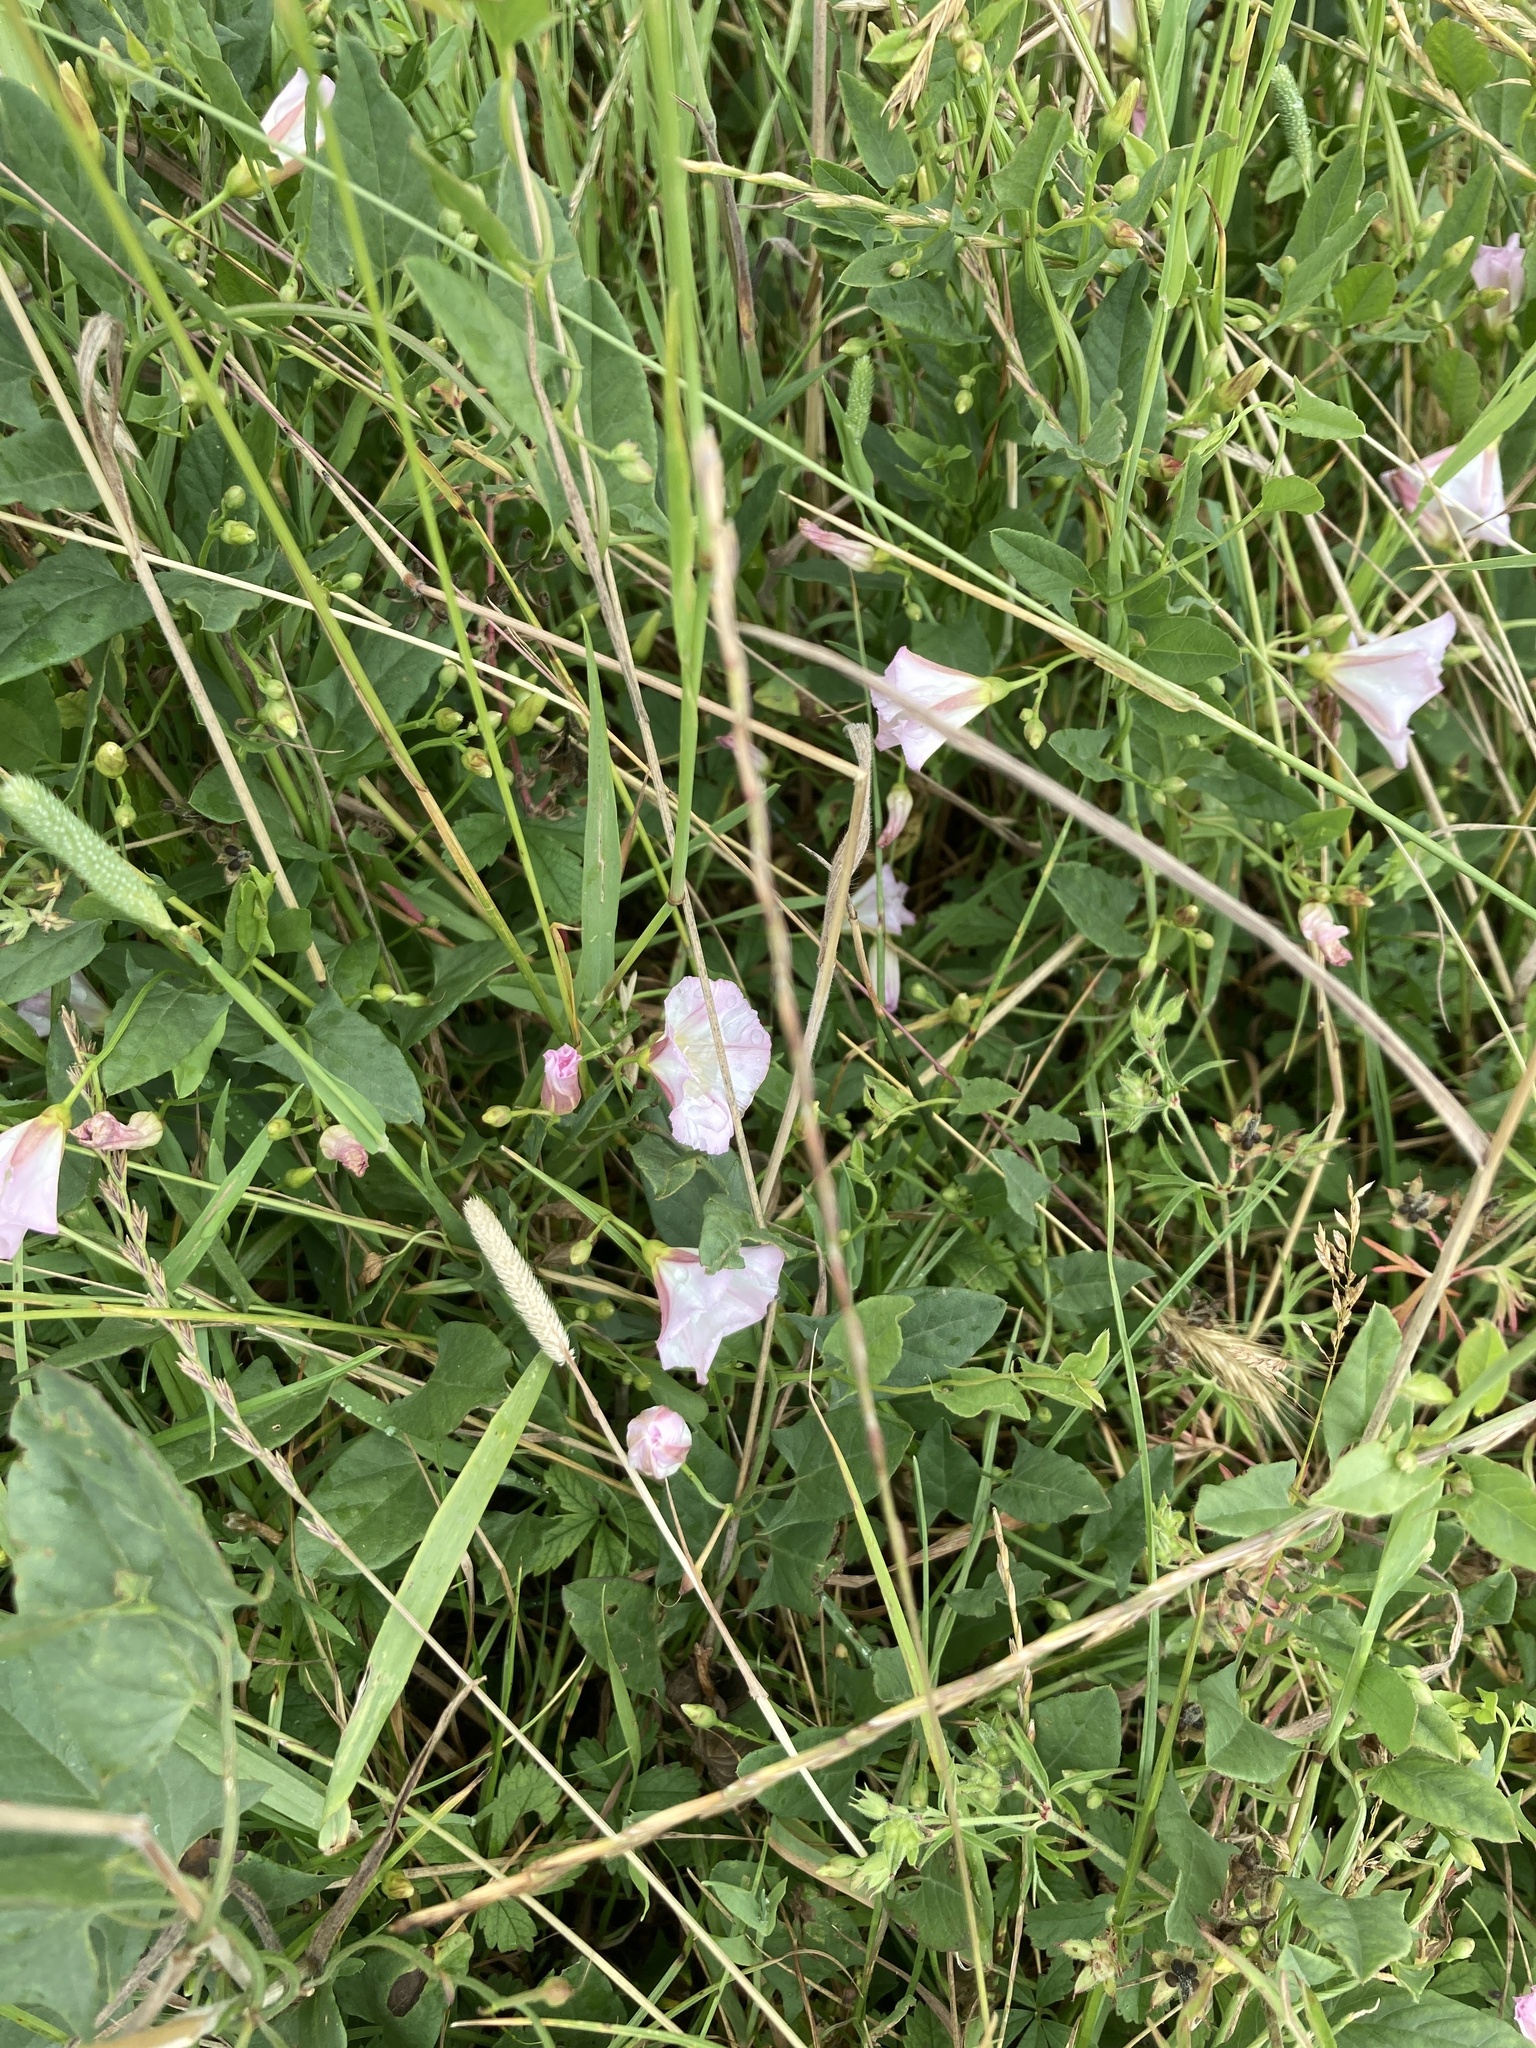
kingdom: Plantae
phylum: Tracheophyta
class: Magnoliopsida
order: Solanales
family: Convolvulaceae
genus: Convolvulus
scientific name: Convolvulus arvensis
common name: Field bindweed
